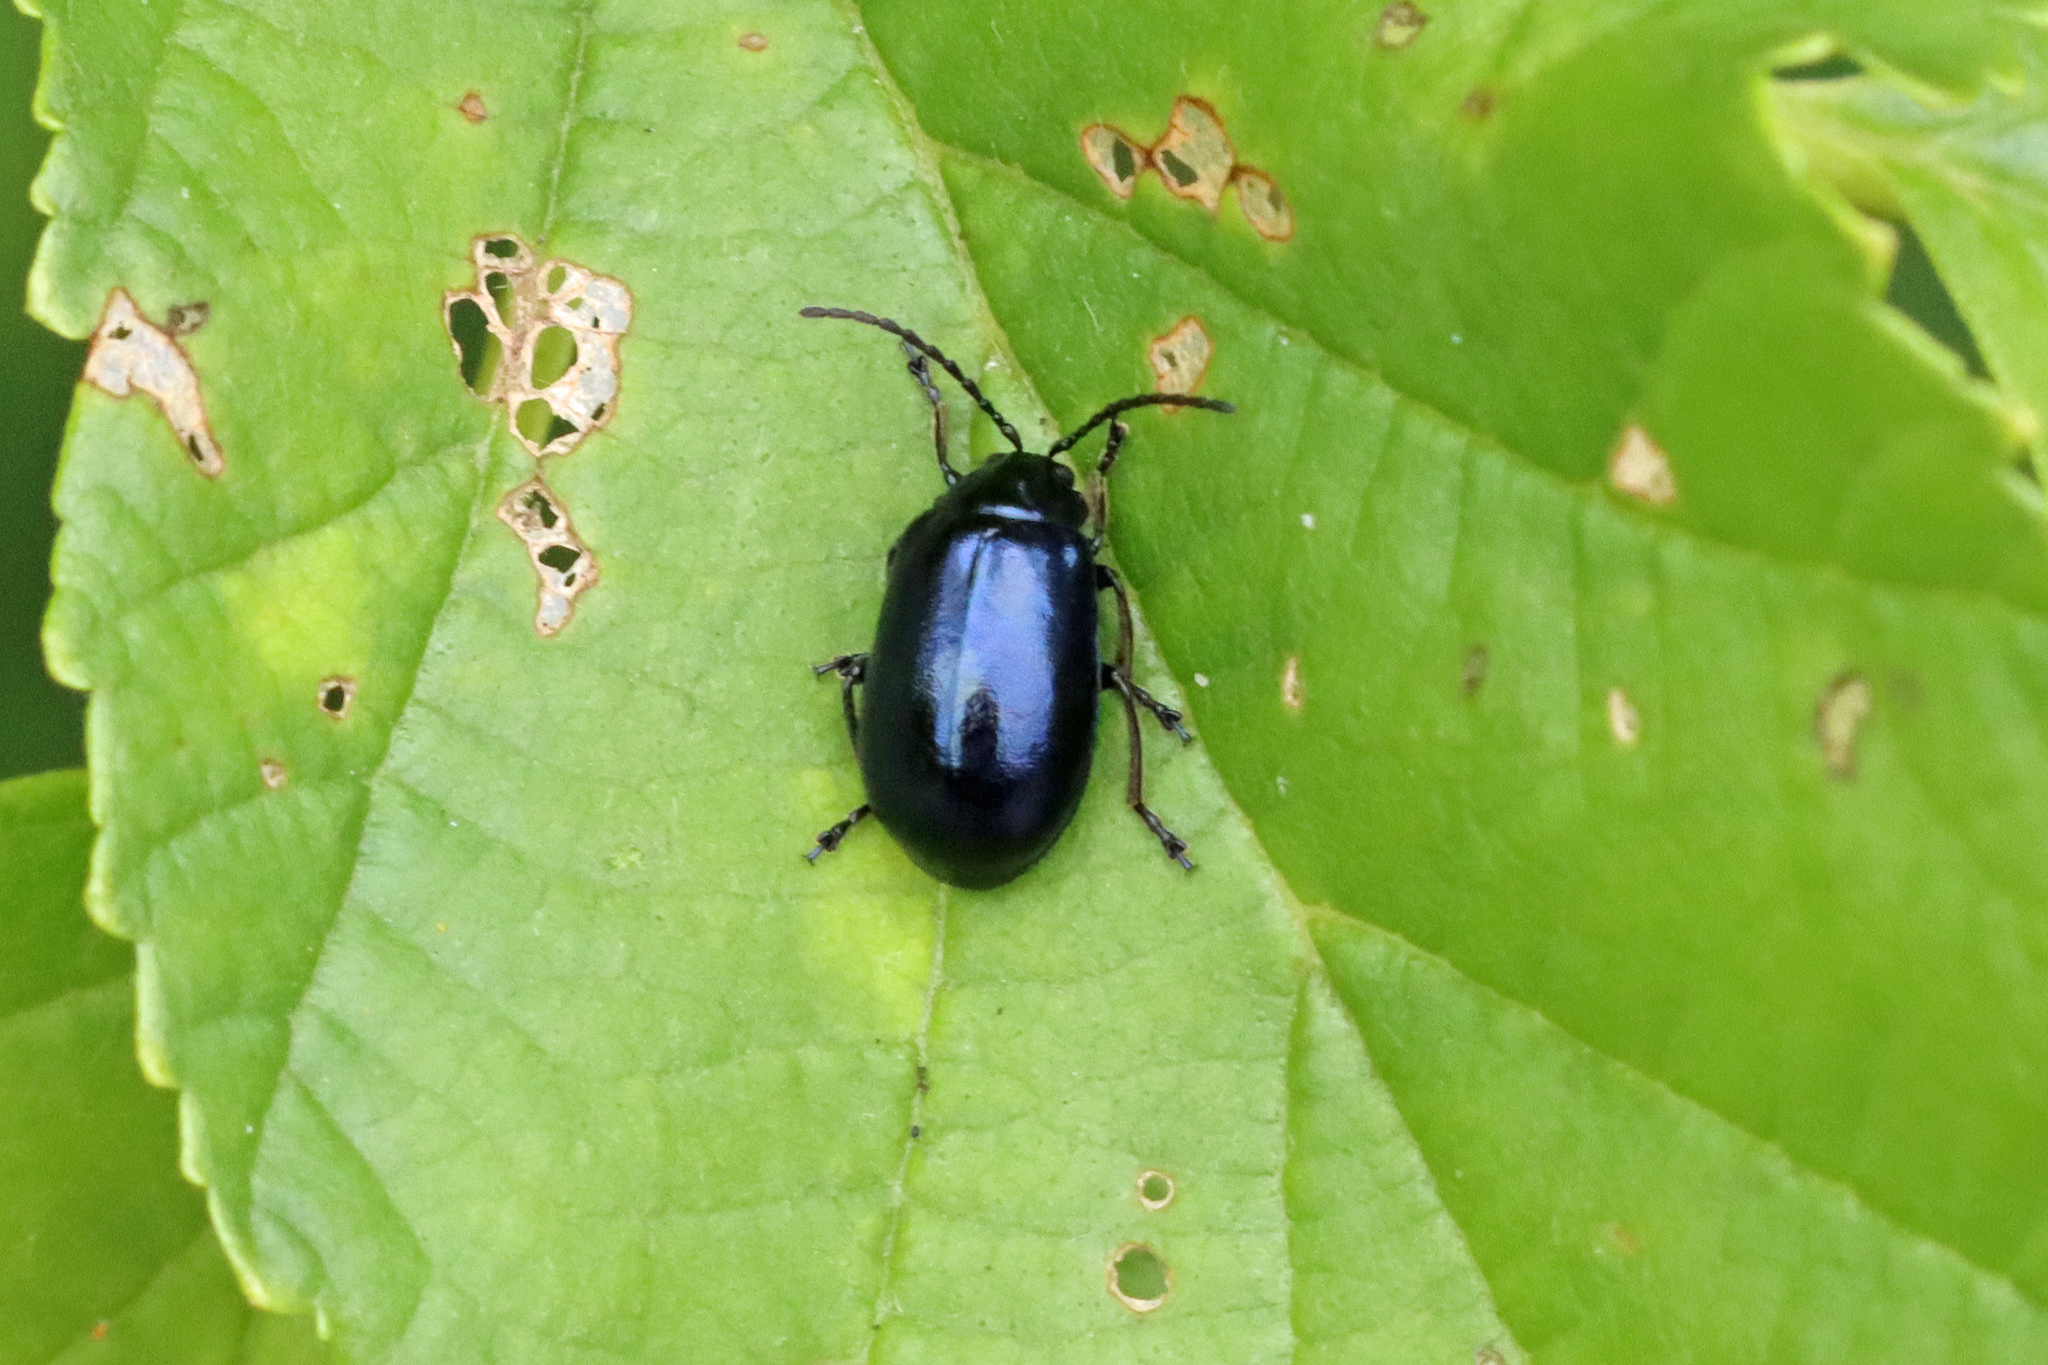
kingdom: Animalia
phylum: Arthropoda
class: Insecta
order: Coleoptera
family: Chrysomelidae
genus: Agelastica
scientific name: Agelastica alni
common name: Alder leaf beetle
